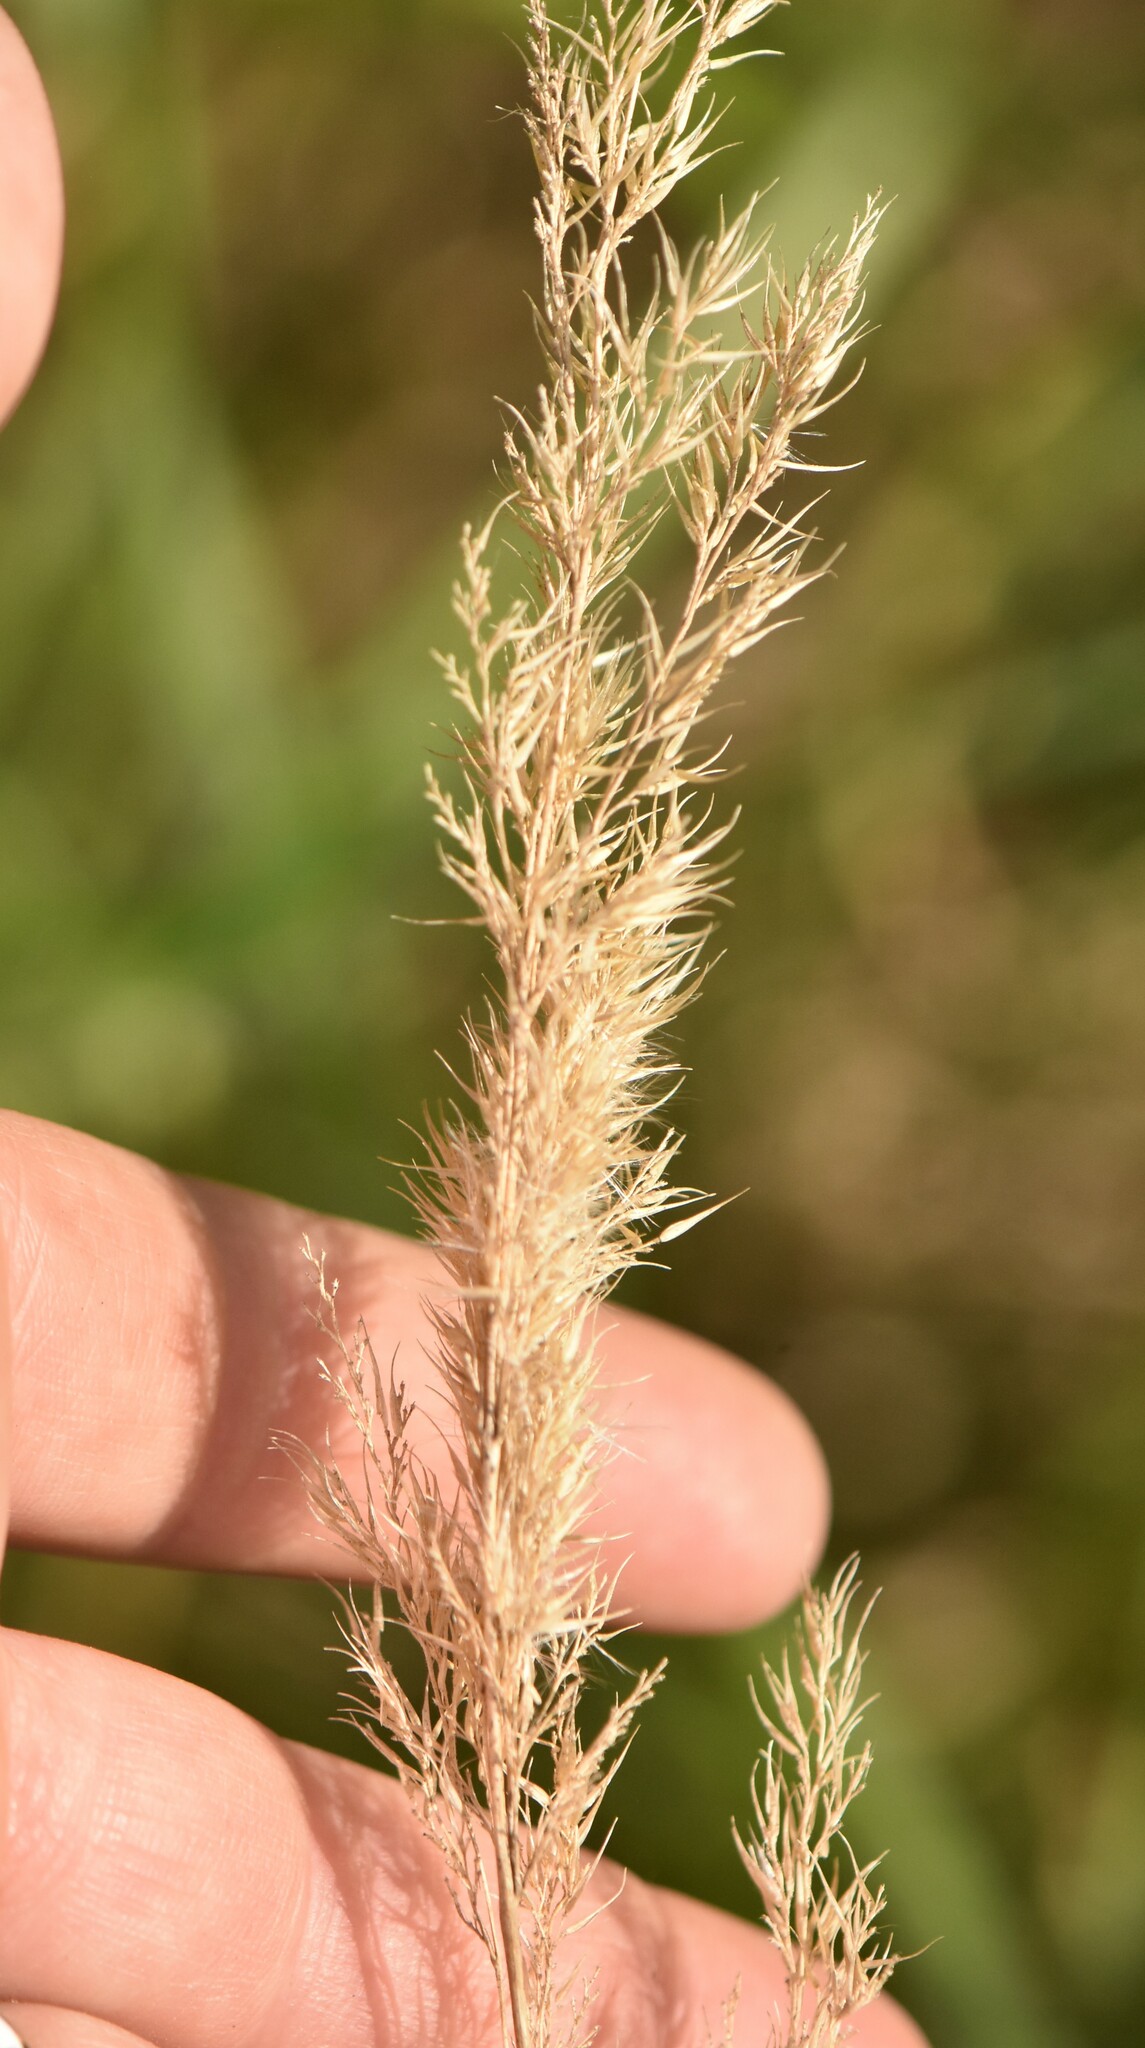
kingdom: Plantae
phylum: Tracheophyta
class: Liliopsida
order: Poales
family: Poaceae
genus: Calamagrostis
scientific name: Calamagrostis epigejos
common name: Wood small-reed
